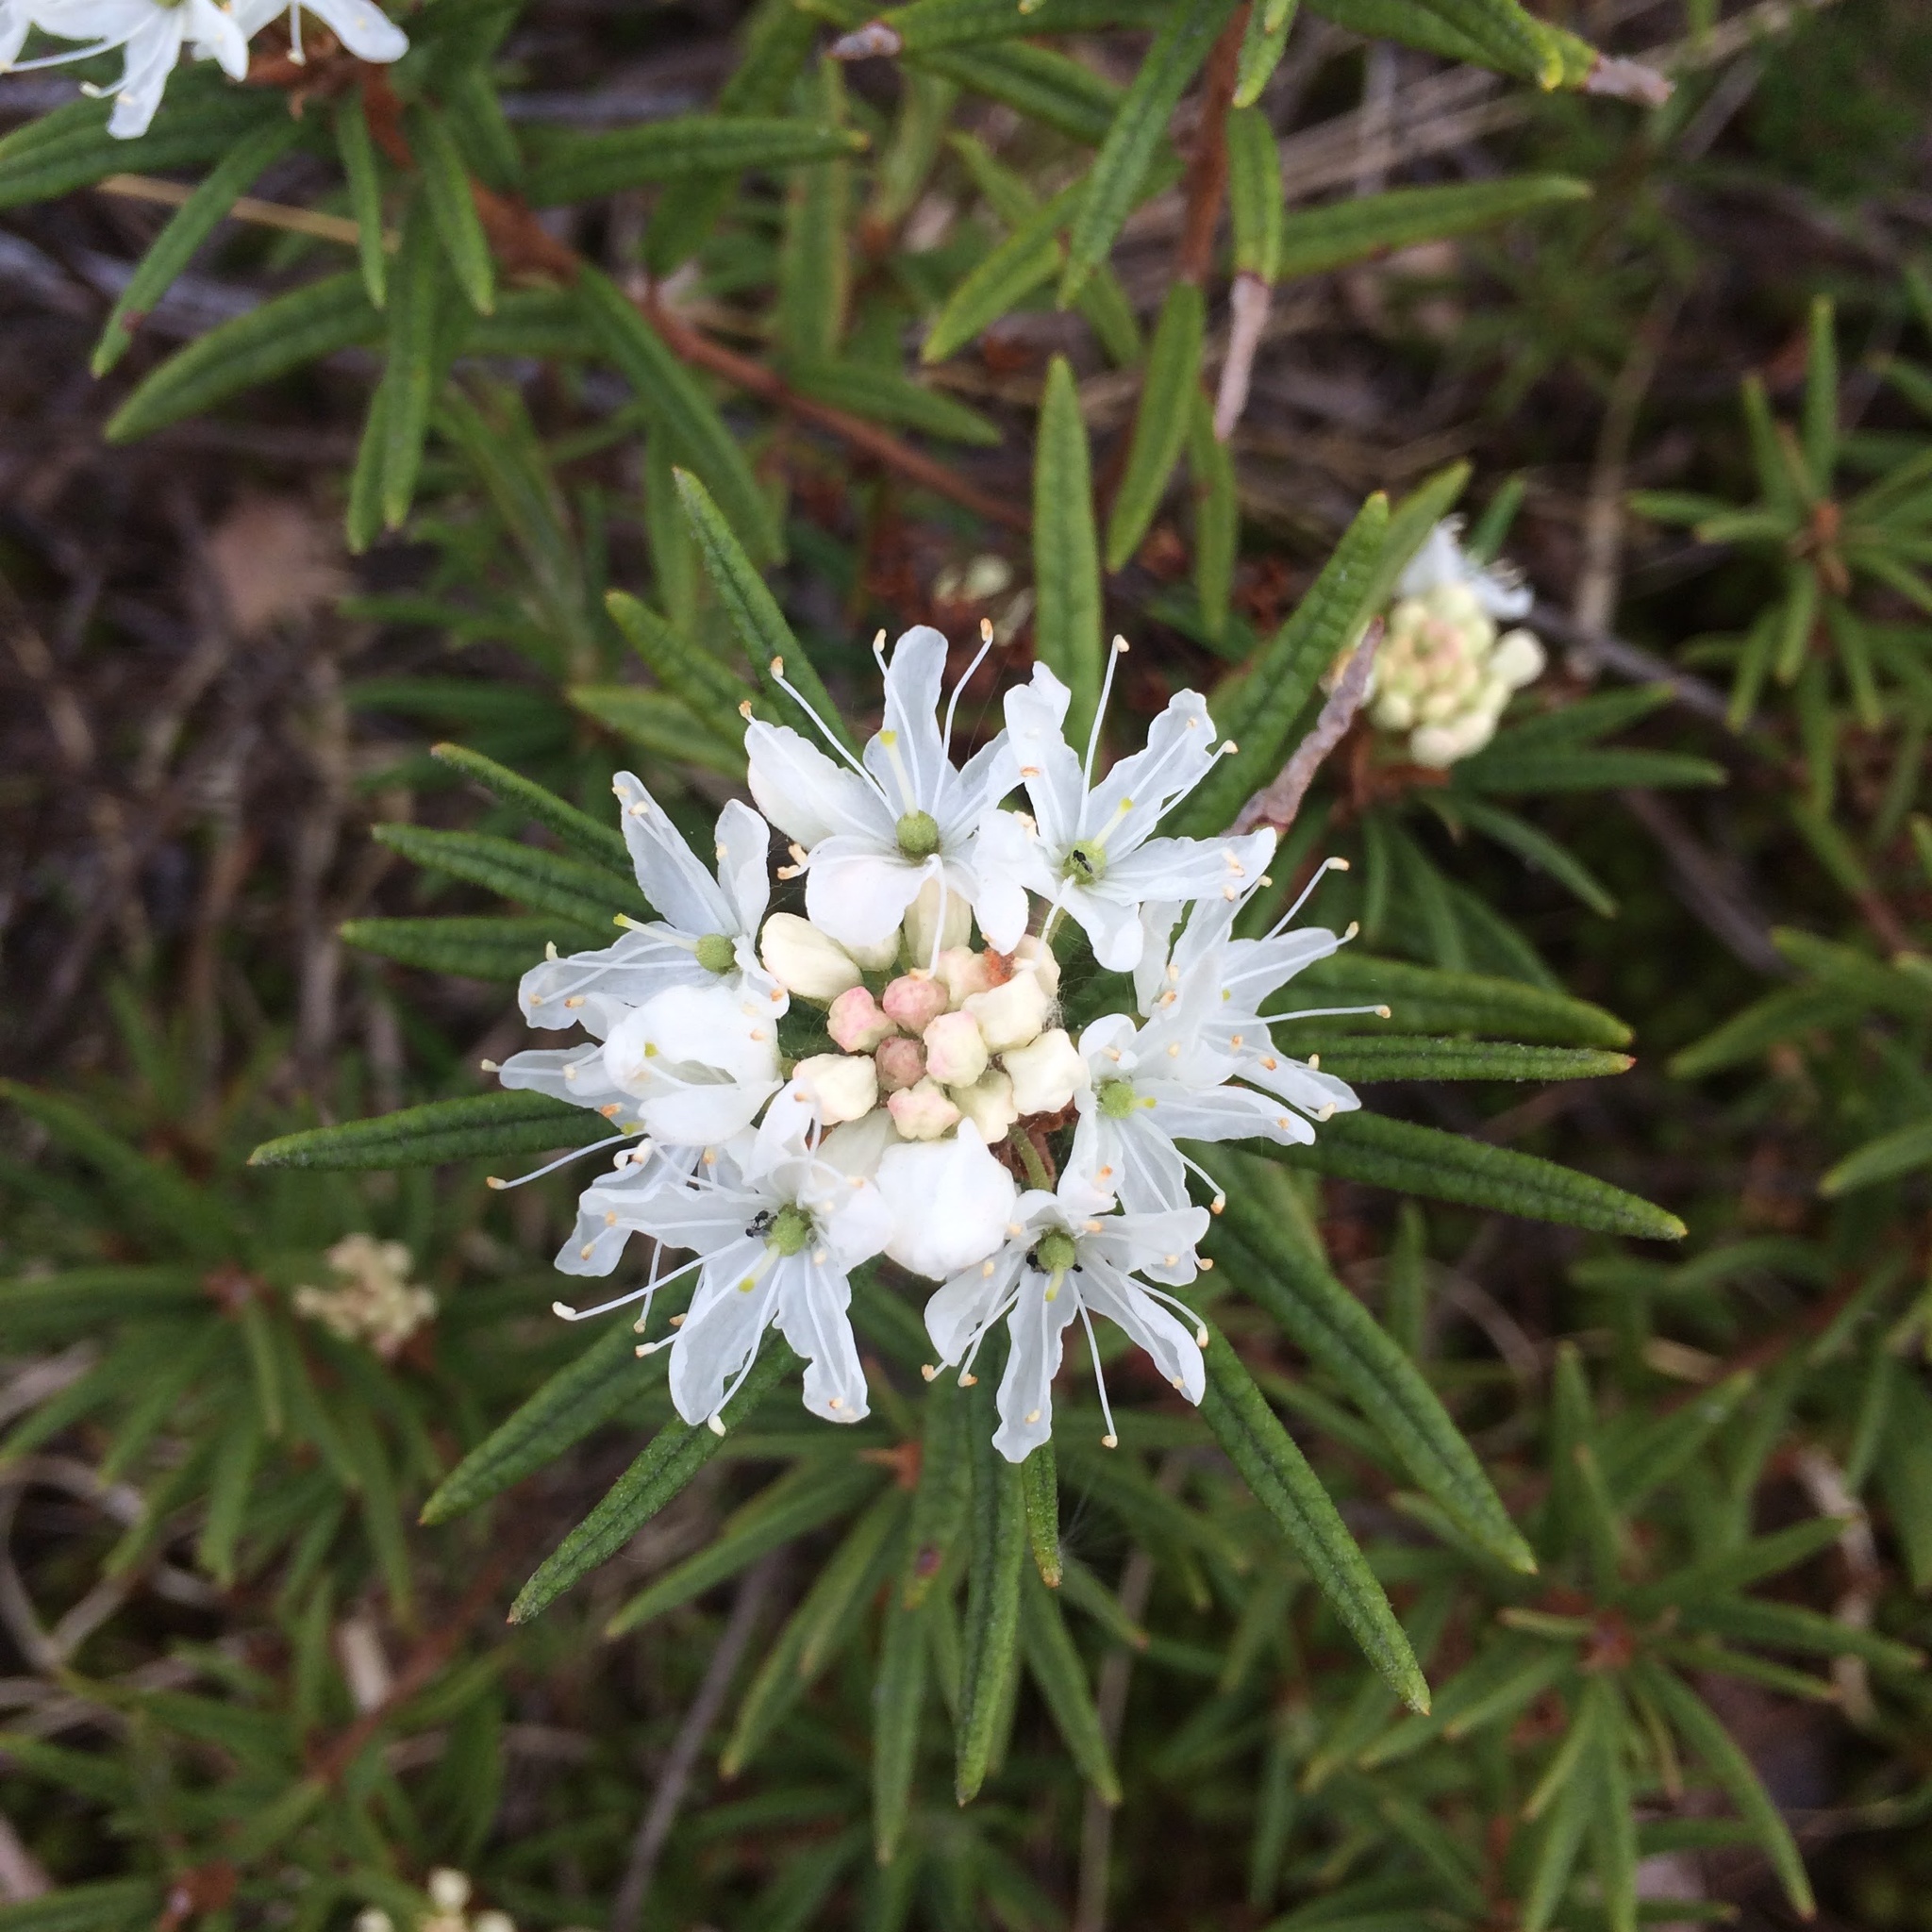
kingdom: Plantae
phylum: Tracheophyta
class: Magnoliopsida
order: Ericales
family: Ericaceae
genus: Rhododendron
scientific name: Rhododendron tomentosum
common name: Marsh labrador tea
